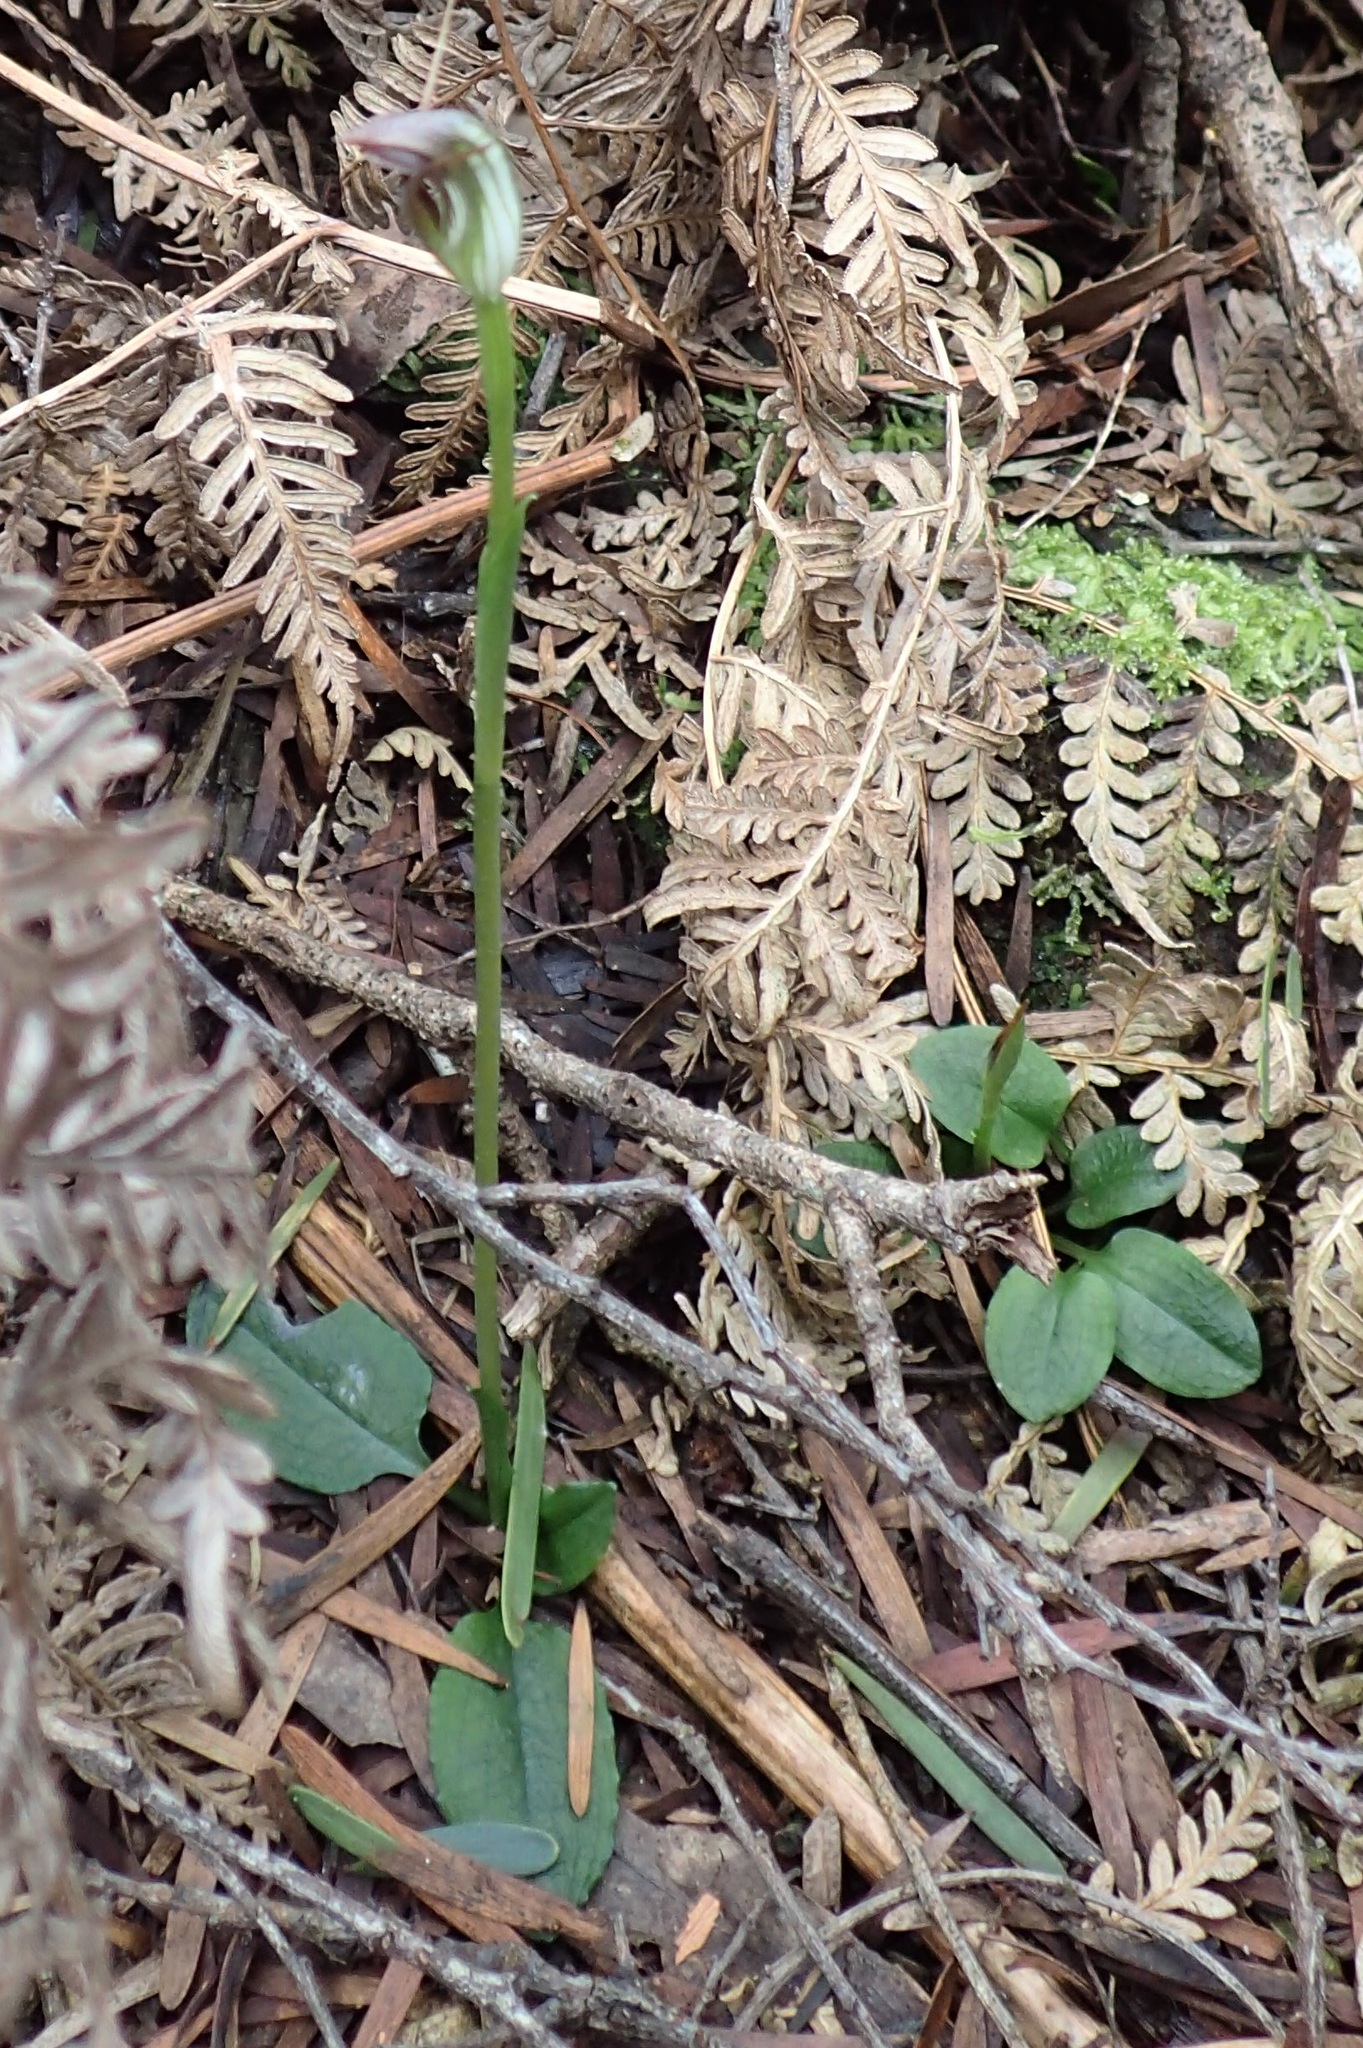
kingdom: Plantae
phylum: Tracheophyta
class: Liliopsida
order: Asparagales
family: Orchidaceae
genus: Pterostylis
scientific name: Pterostylis pedunculata
